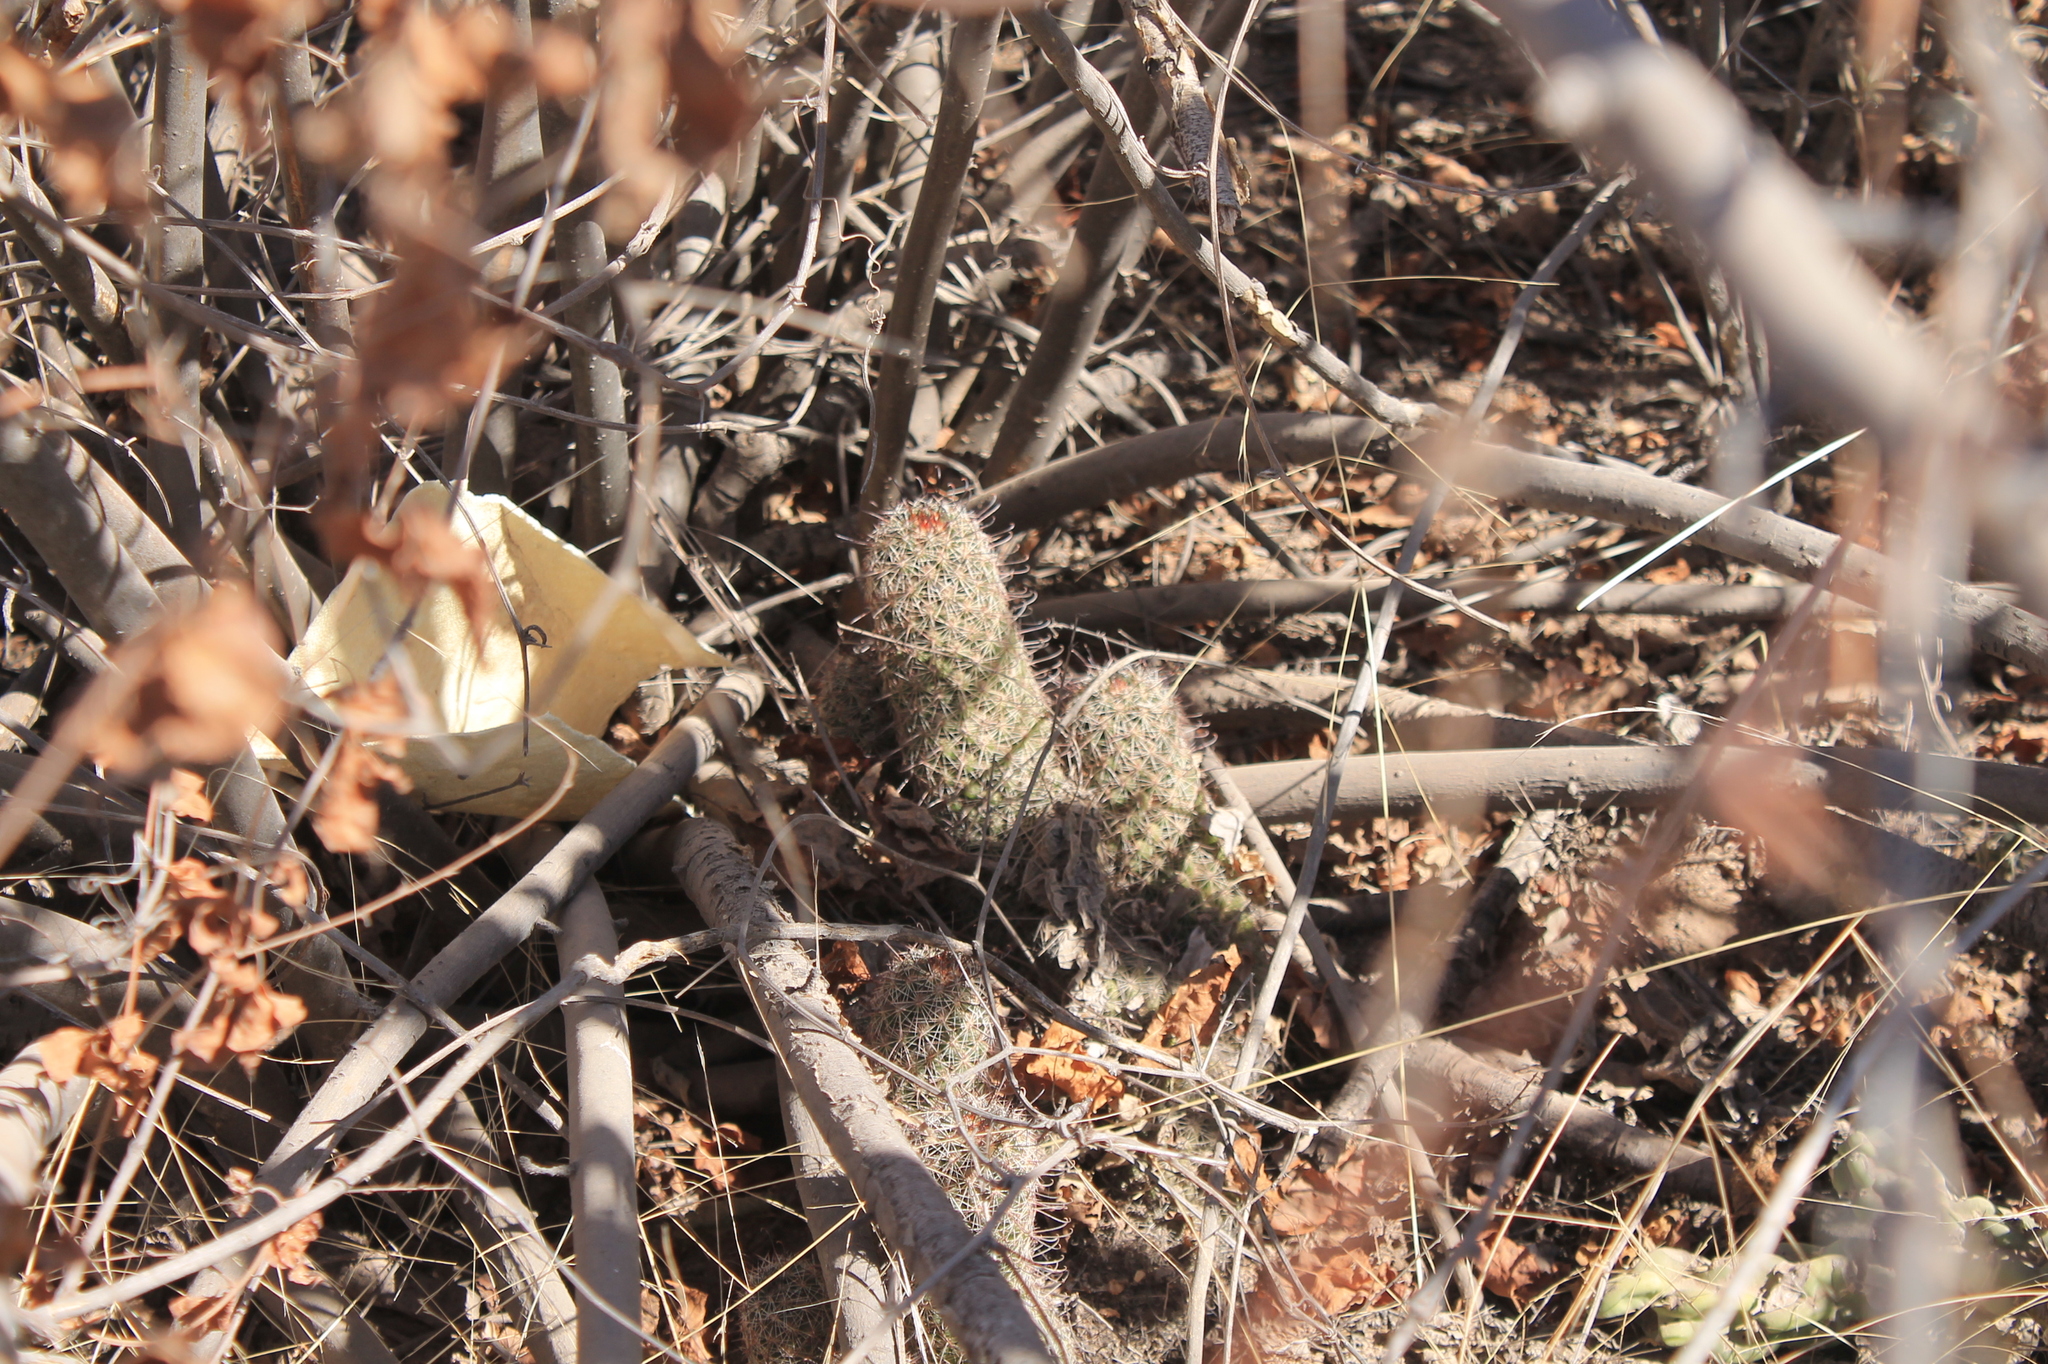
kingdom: Plantae
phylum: Tracheophyta
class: Magnoliopsida
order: Caryophyllales
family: Cactaceae
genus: Cochemiea
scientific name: Cochemiea sheldonii
